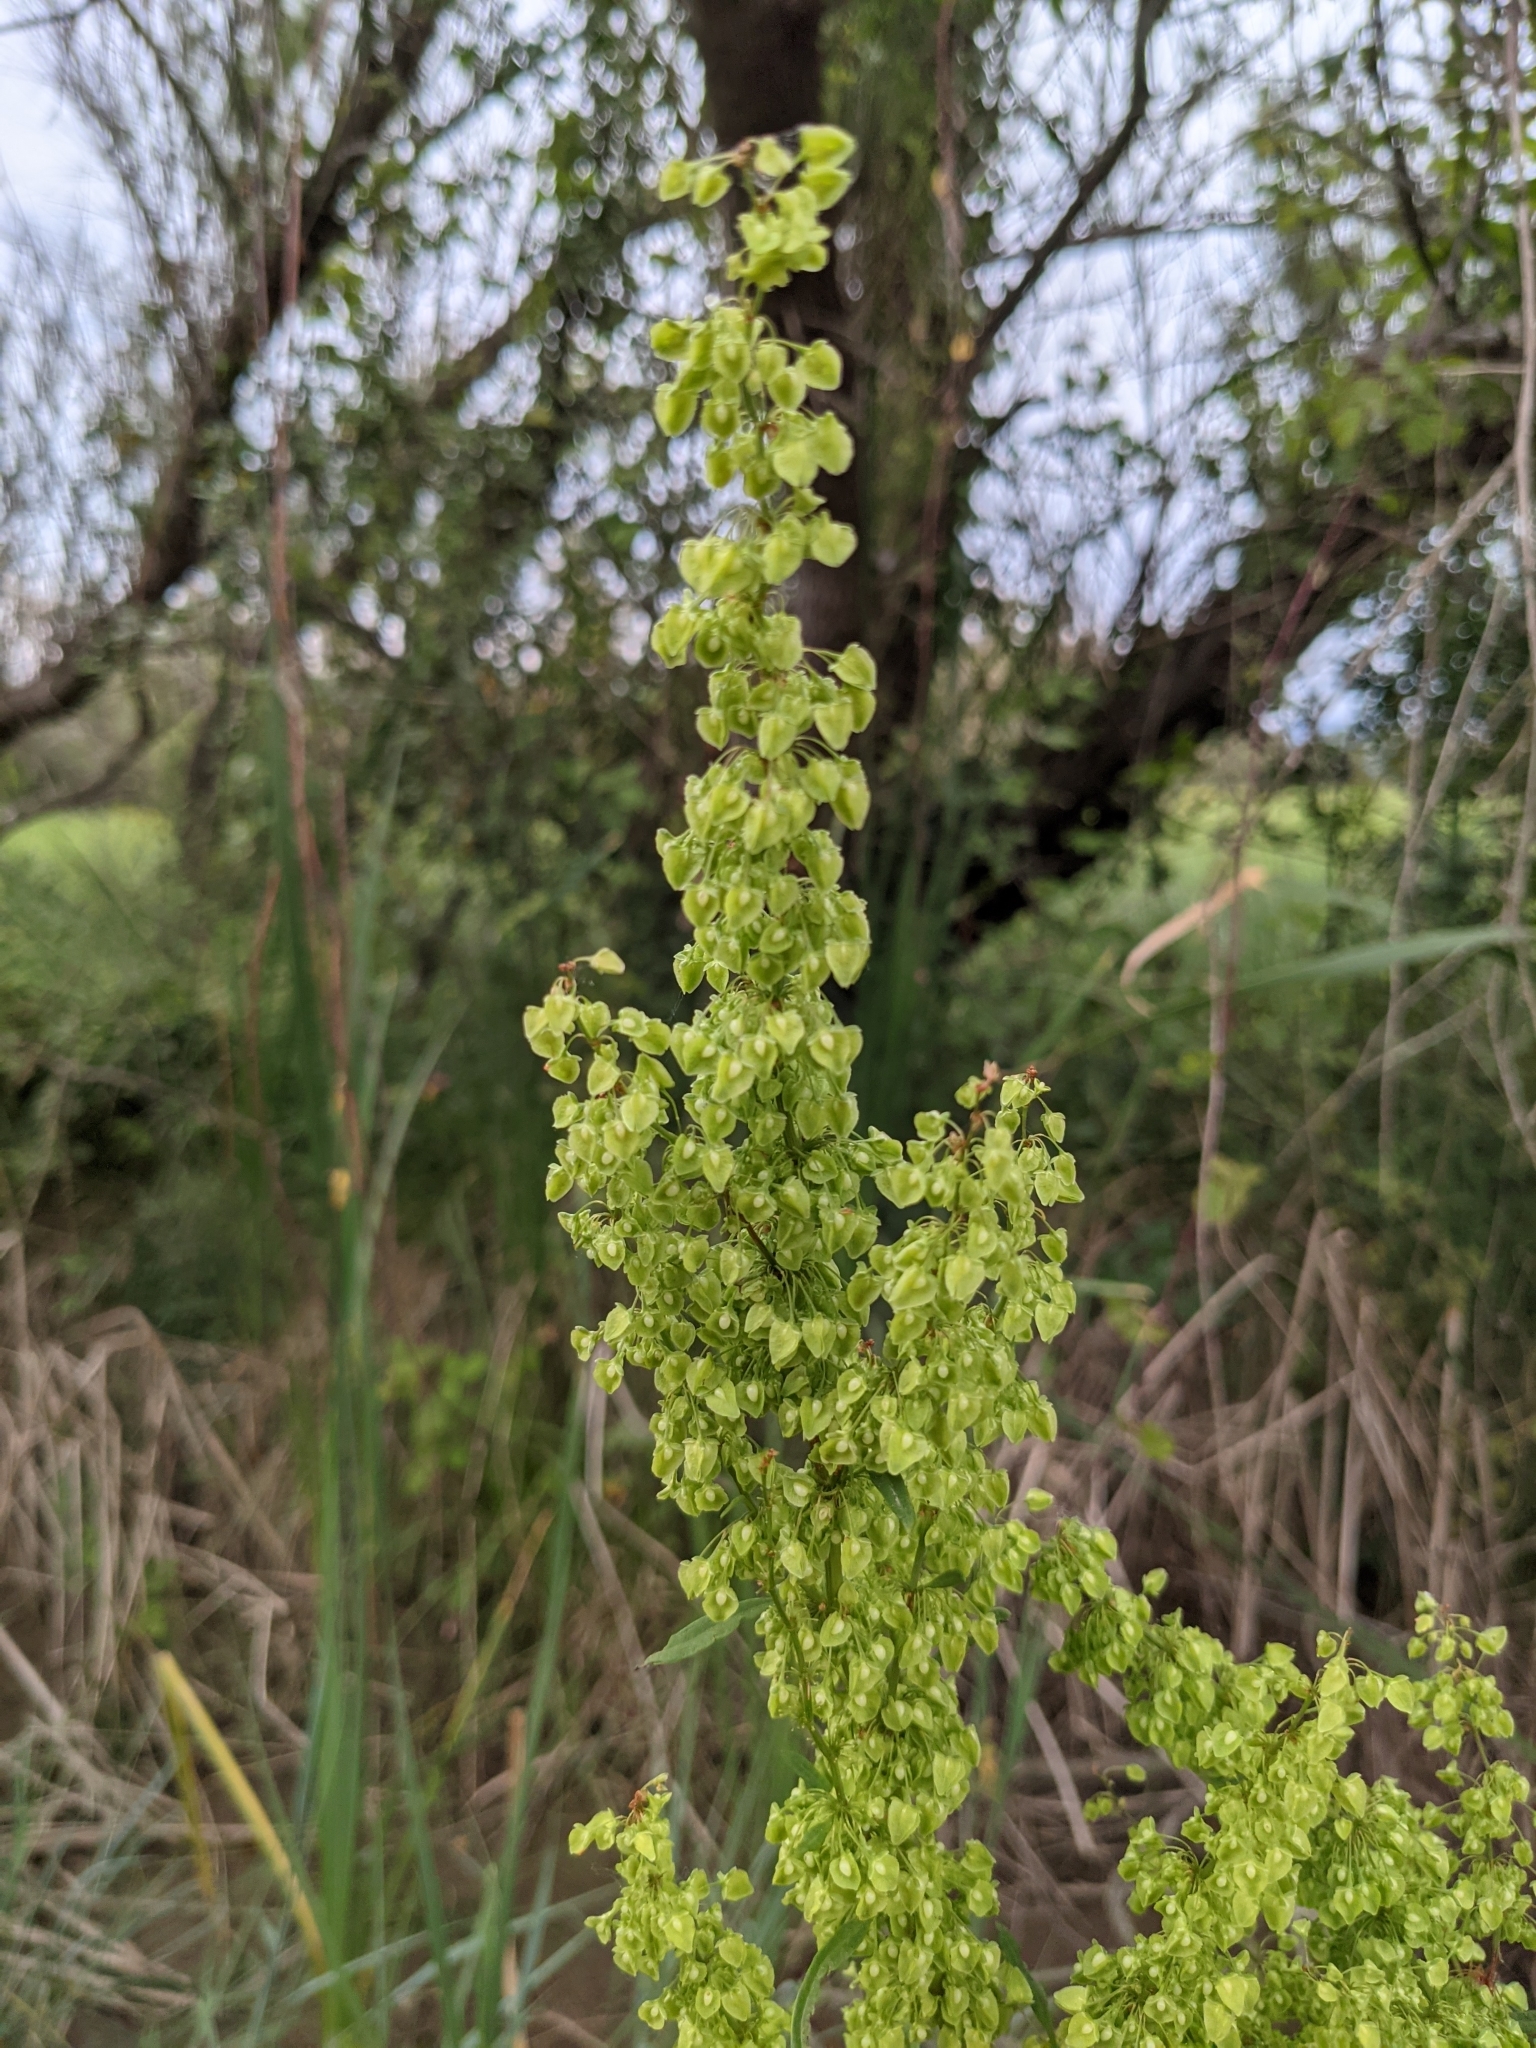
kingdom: Plantae
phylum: Tracheophyta
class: Magnoliopsida
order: Caryophyllales
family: Polygonaceae
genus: Rumex
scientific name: Rumex crispus
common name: Curled dock
